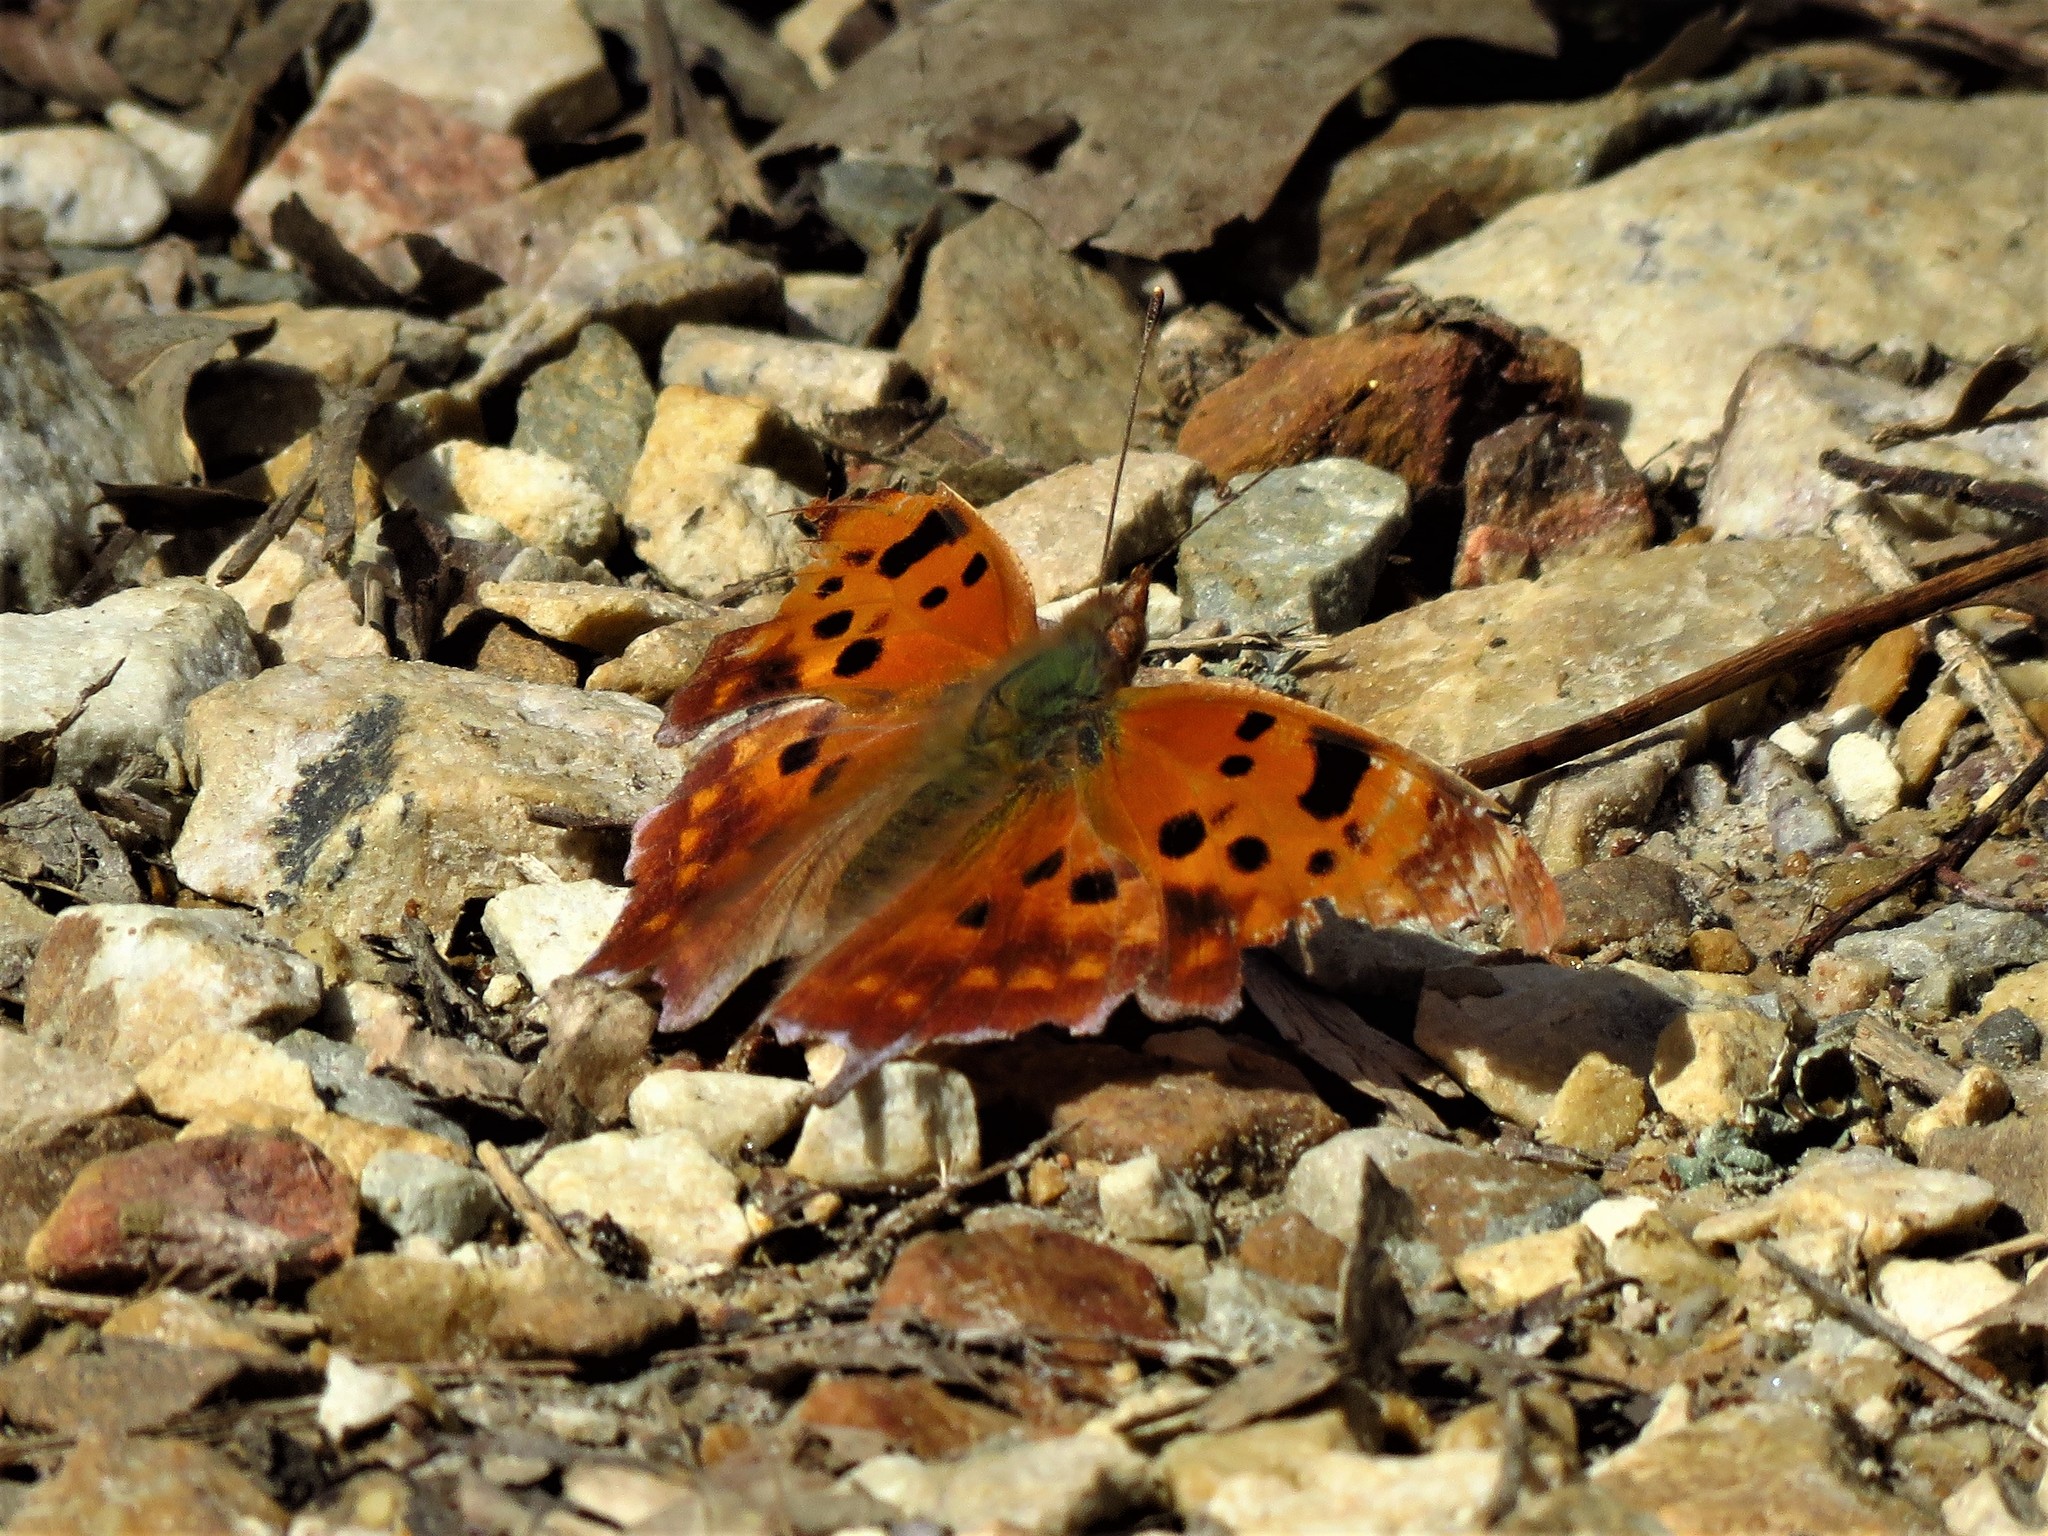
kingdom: Animalia
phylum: Arthropoda
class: Insecta
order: Lepidoptera
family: Nymphalidae
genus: Polygonia
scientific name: Polygonia interrogationis
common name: Question mark
